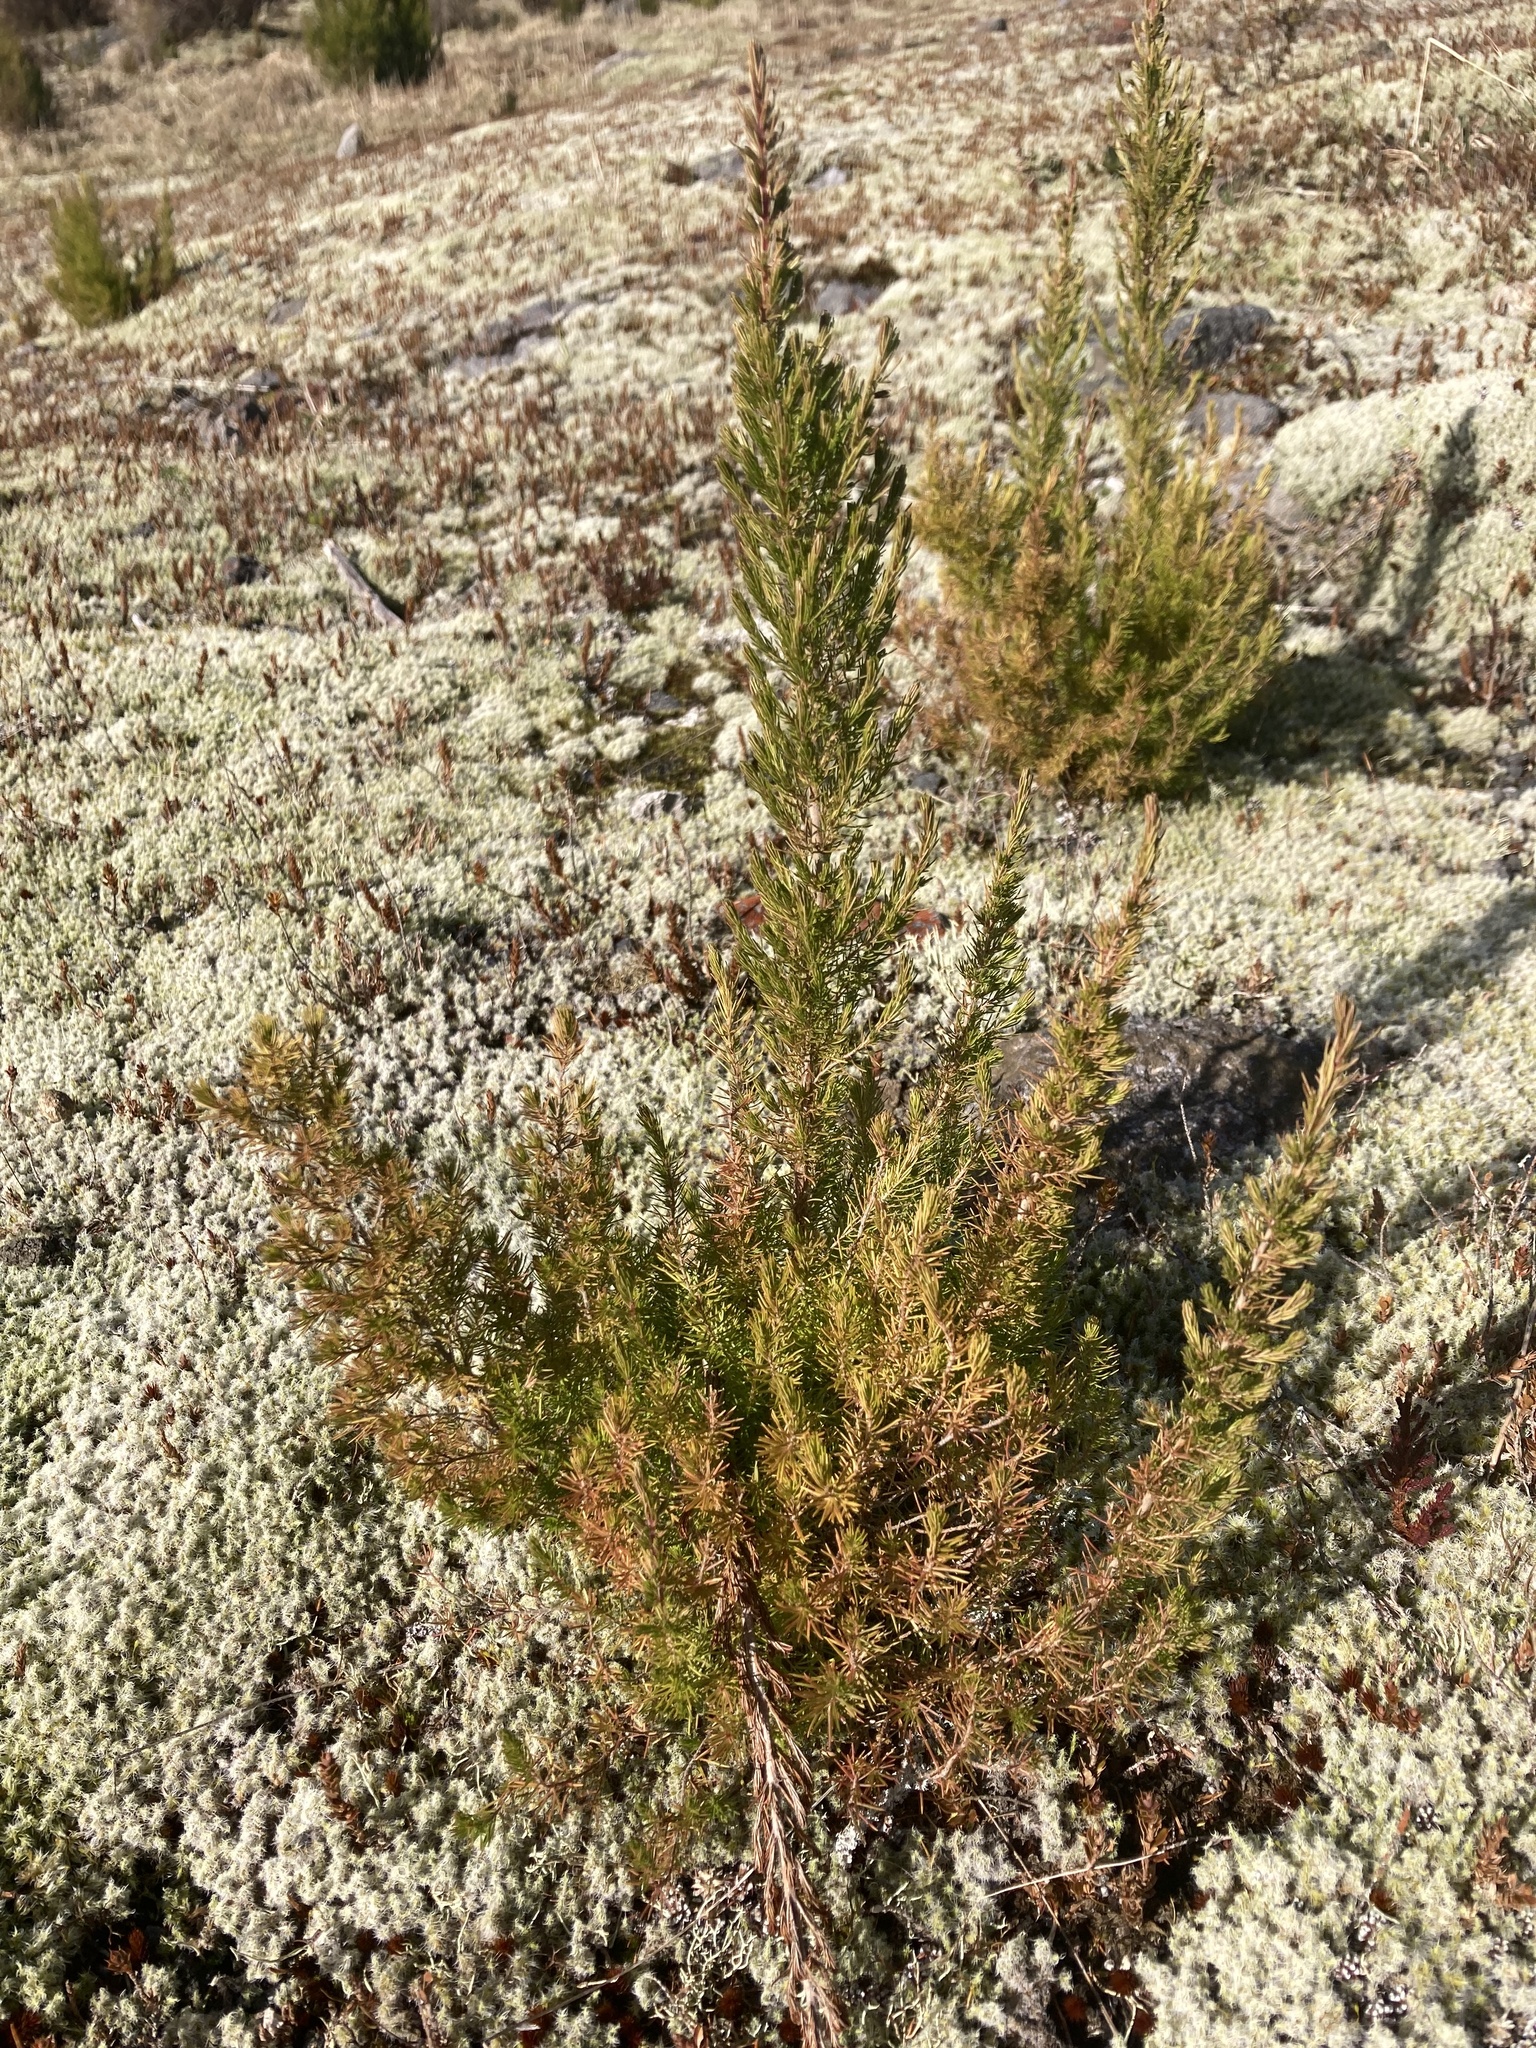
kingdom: Plantae
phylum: Tracheophyta
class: Magnoliopsida
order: Ericales
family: Ericaceae
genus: Erica
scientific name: Erica lusitanica
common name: Spanish heath
